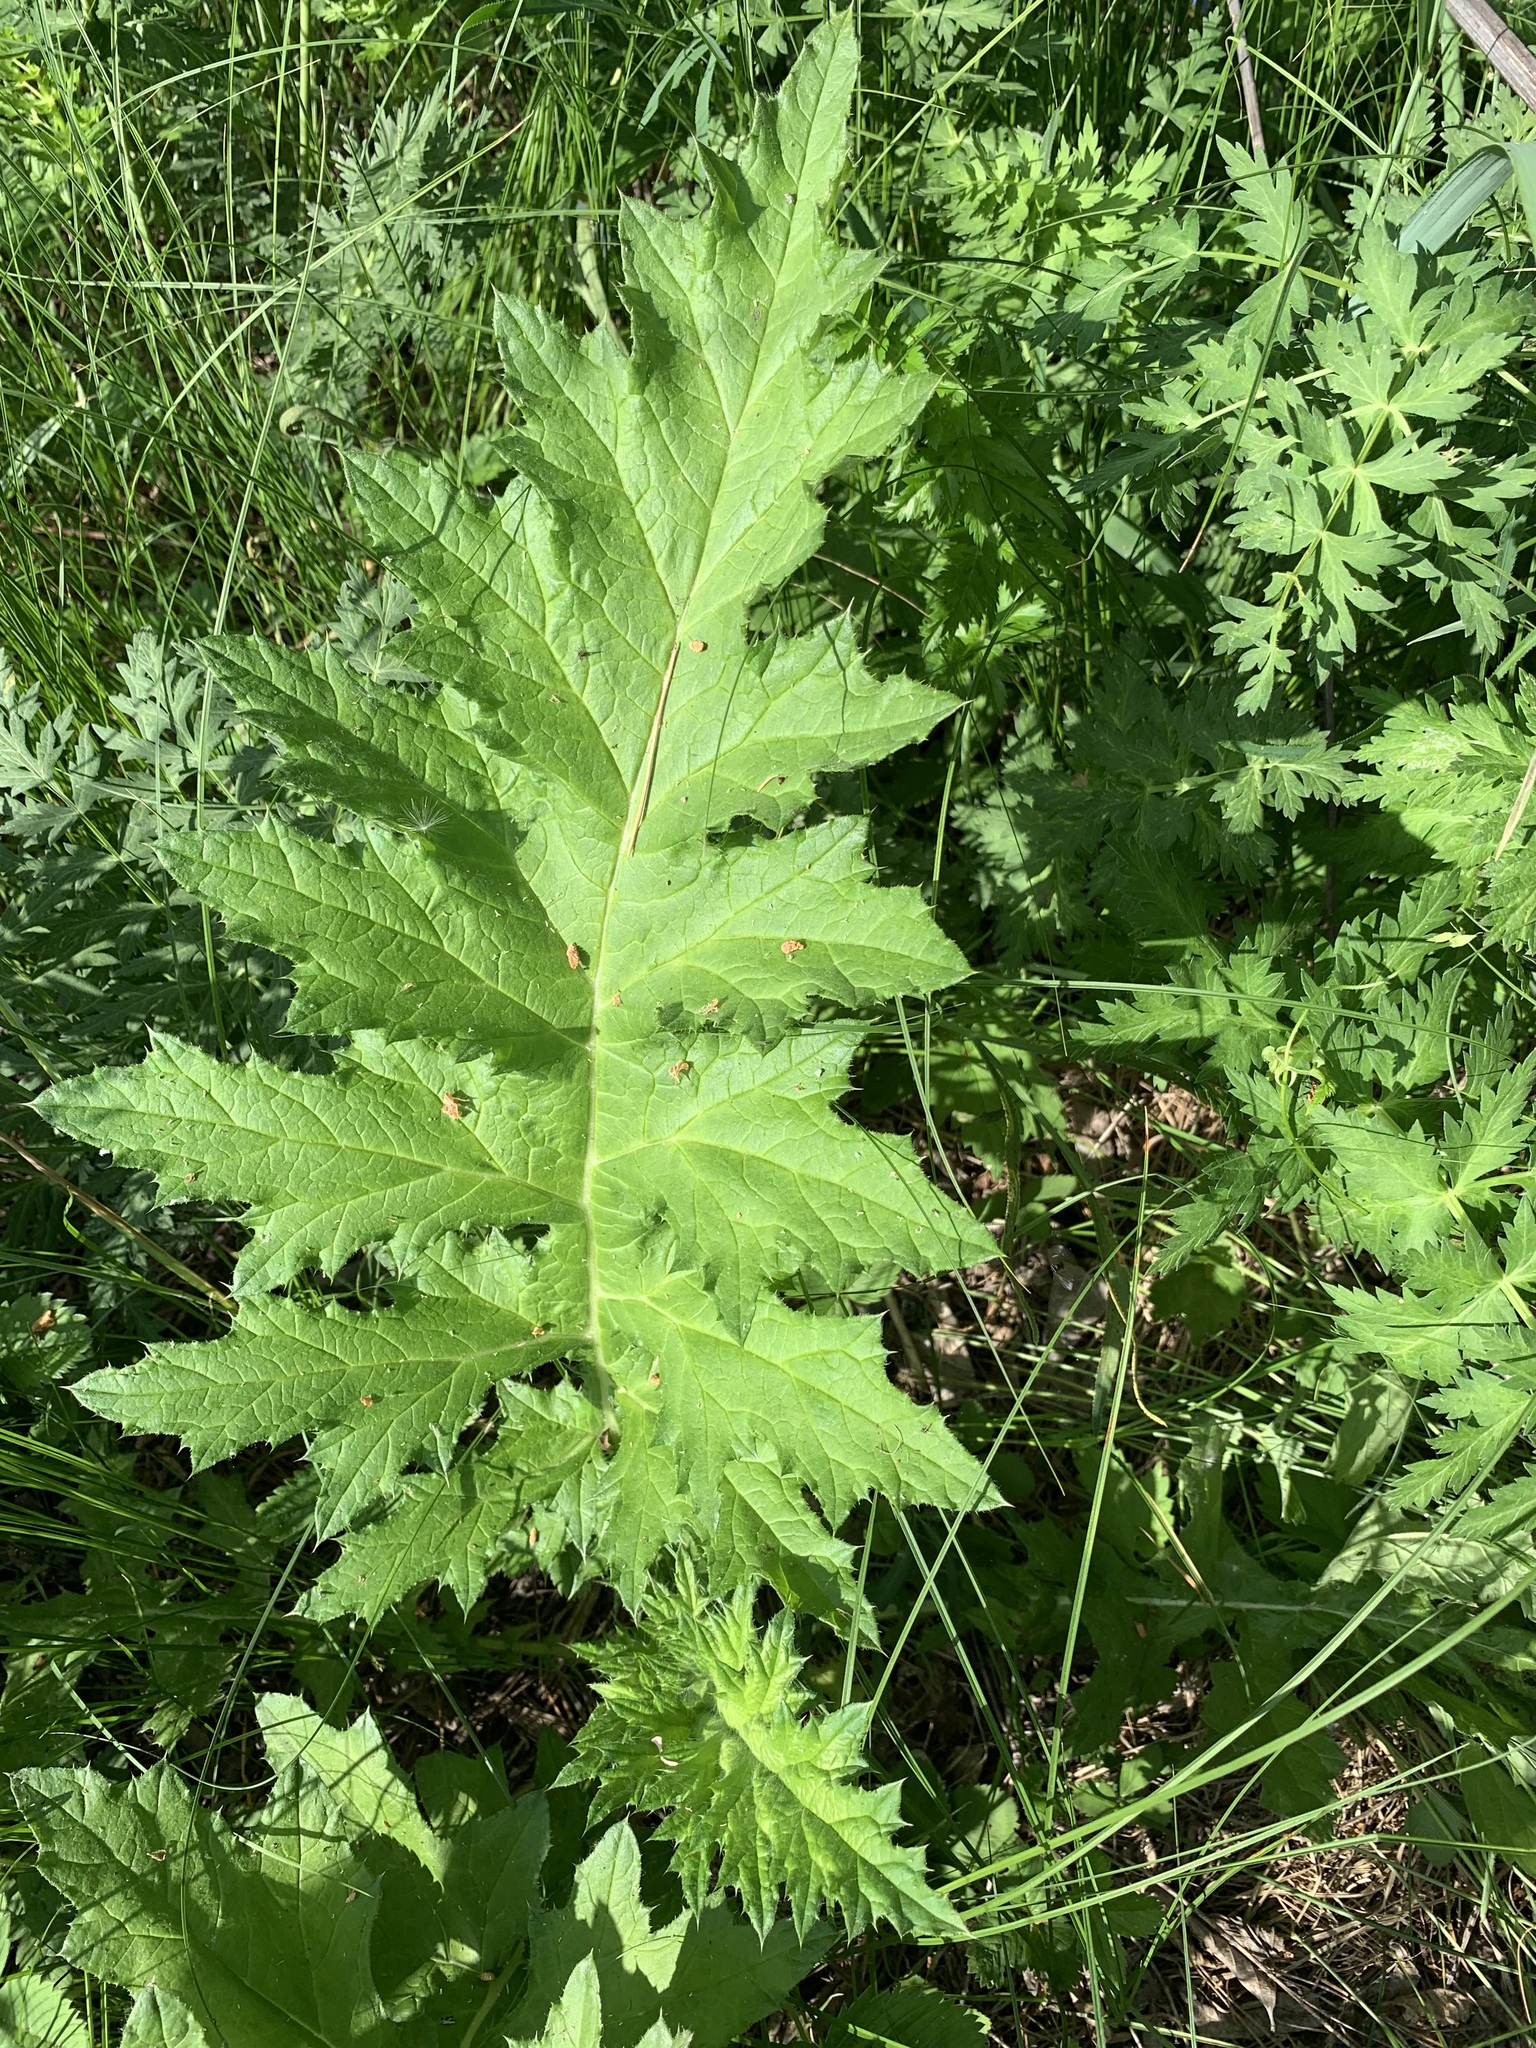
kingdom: Plantae
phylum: Tracheophyta
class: Magnoliopsida
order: Asterales
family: Asteraceae
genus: Echinops
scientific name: Echinops sphaerocephalus
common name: Glandular globe-thistle
